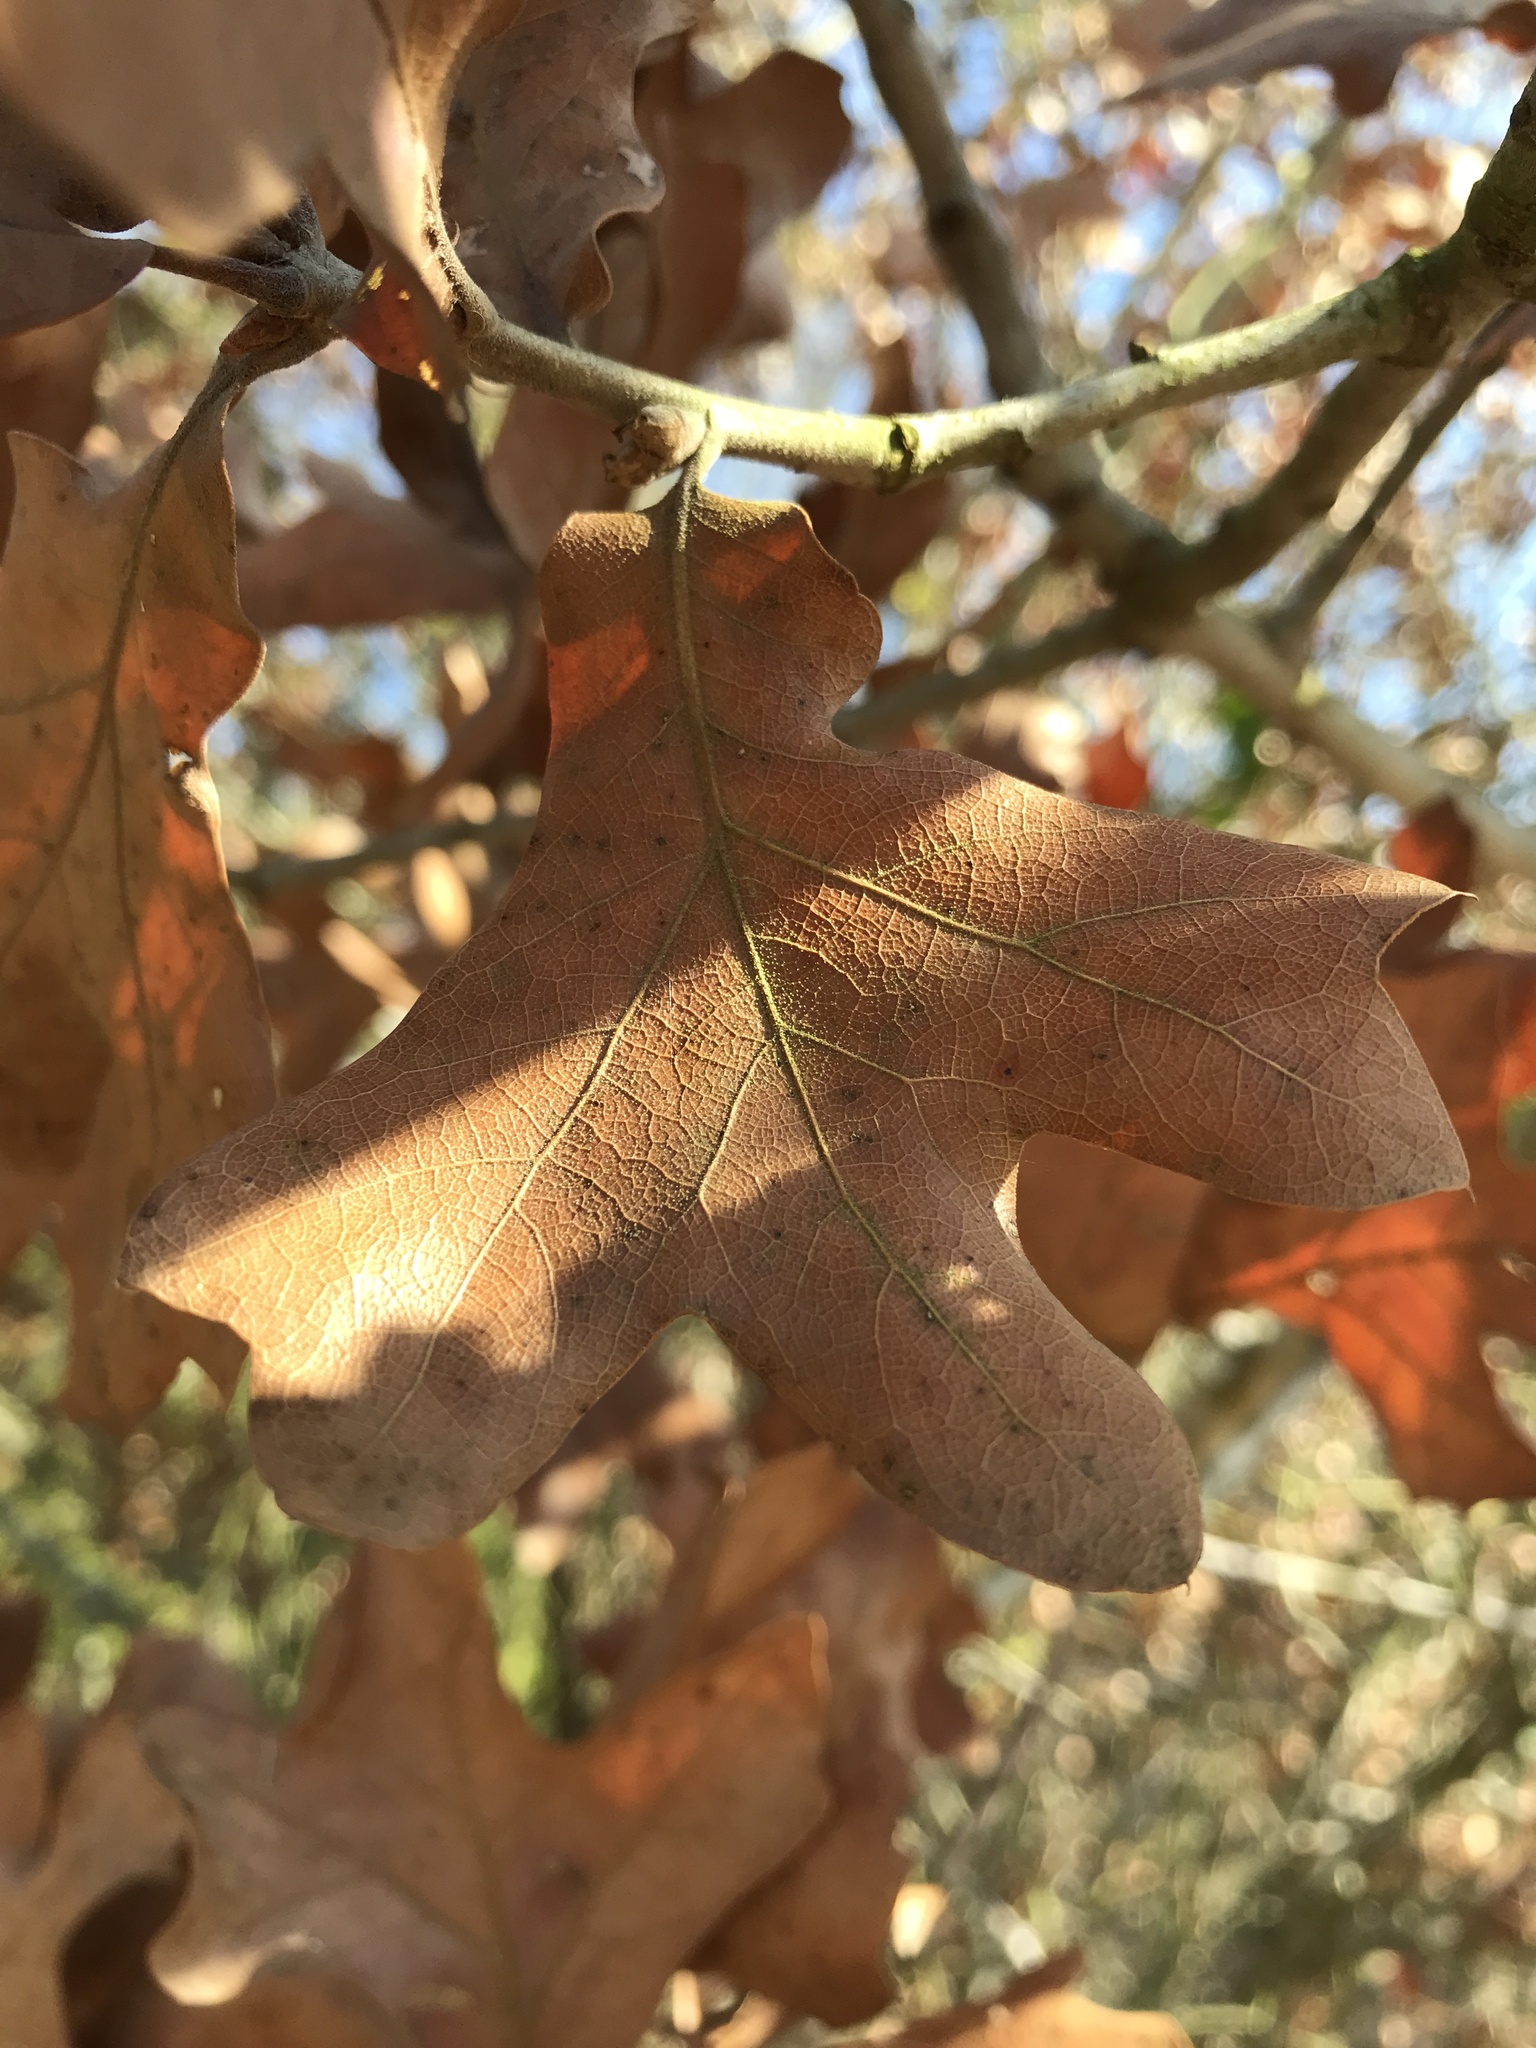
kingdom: Plantae
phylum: Tracheophyta
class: Magnoliopsida
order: Fagales
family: Fagaceae
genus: Quercus
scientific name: Quercus marilandica
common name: Blackjack oak
